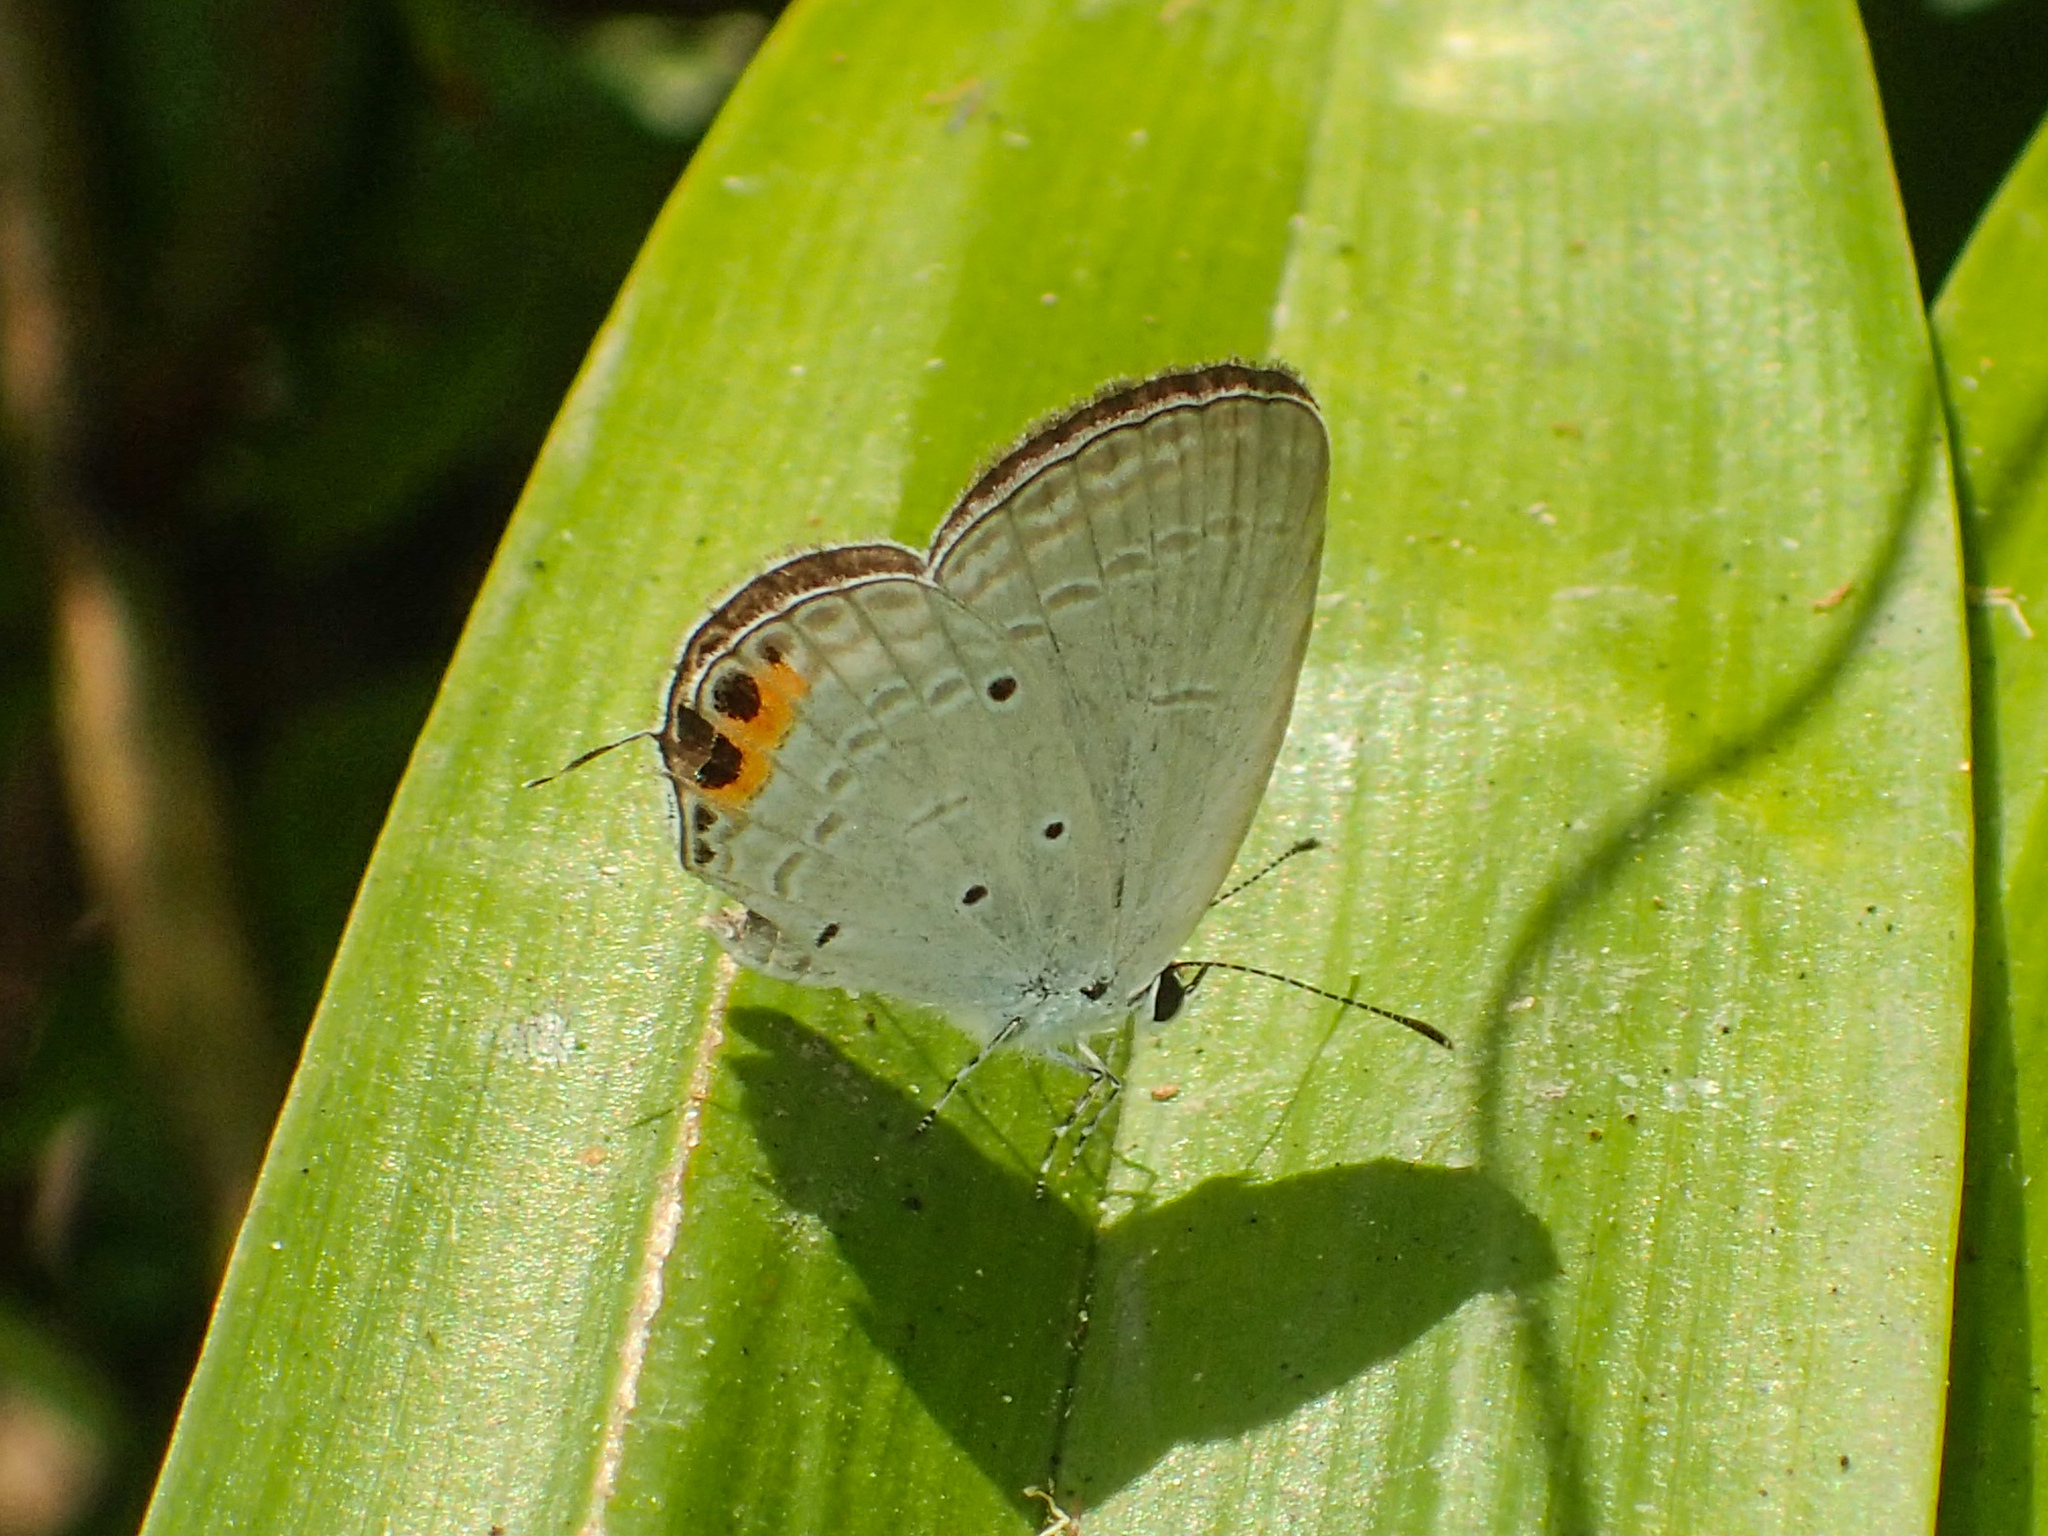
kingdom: Animalia
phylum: Arthropoda
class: Insecta
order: Lepidoptera
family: Lycaenidae
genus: Everes
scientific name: Everes lacturnus
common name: Orange-tipped pea-blue
